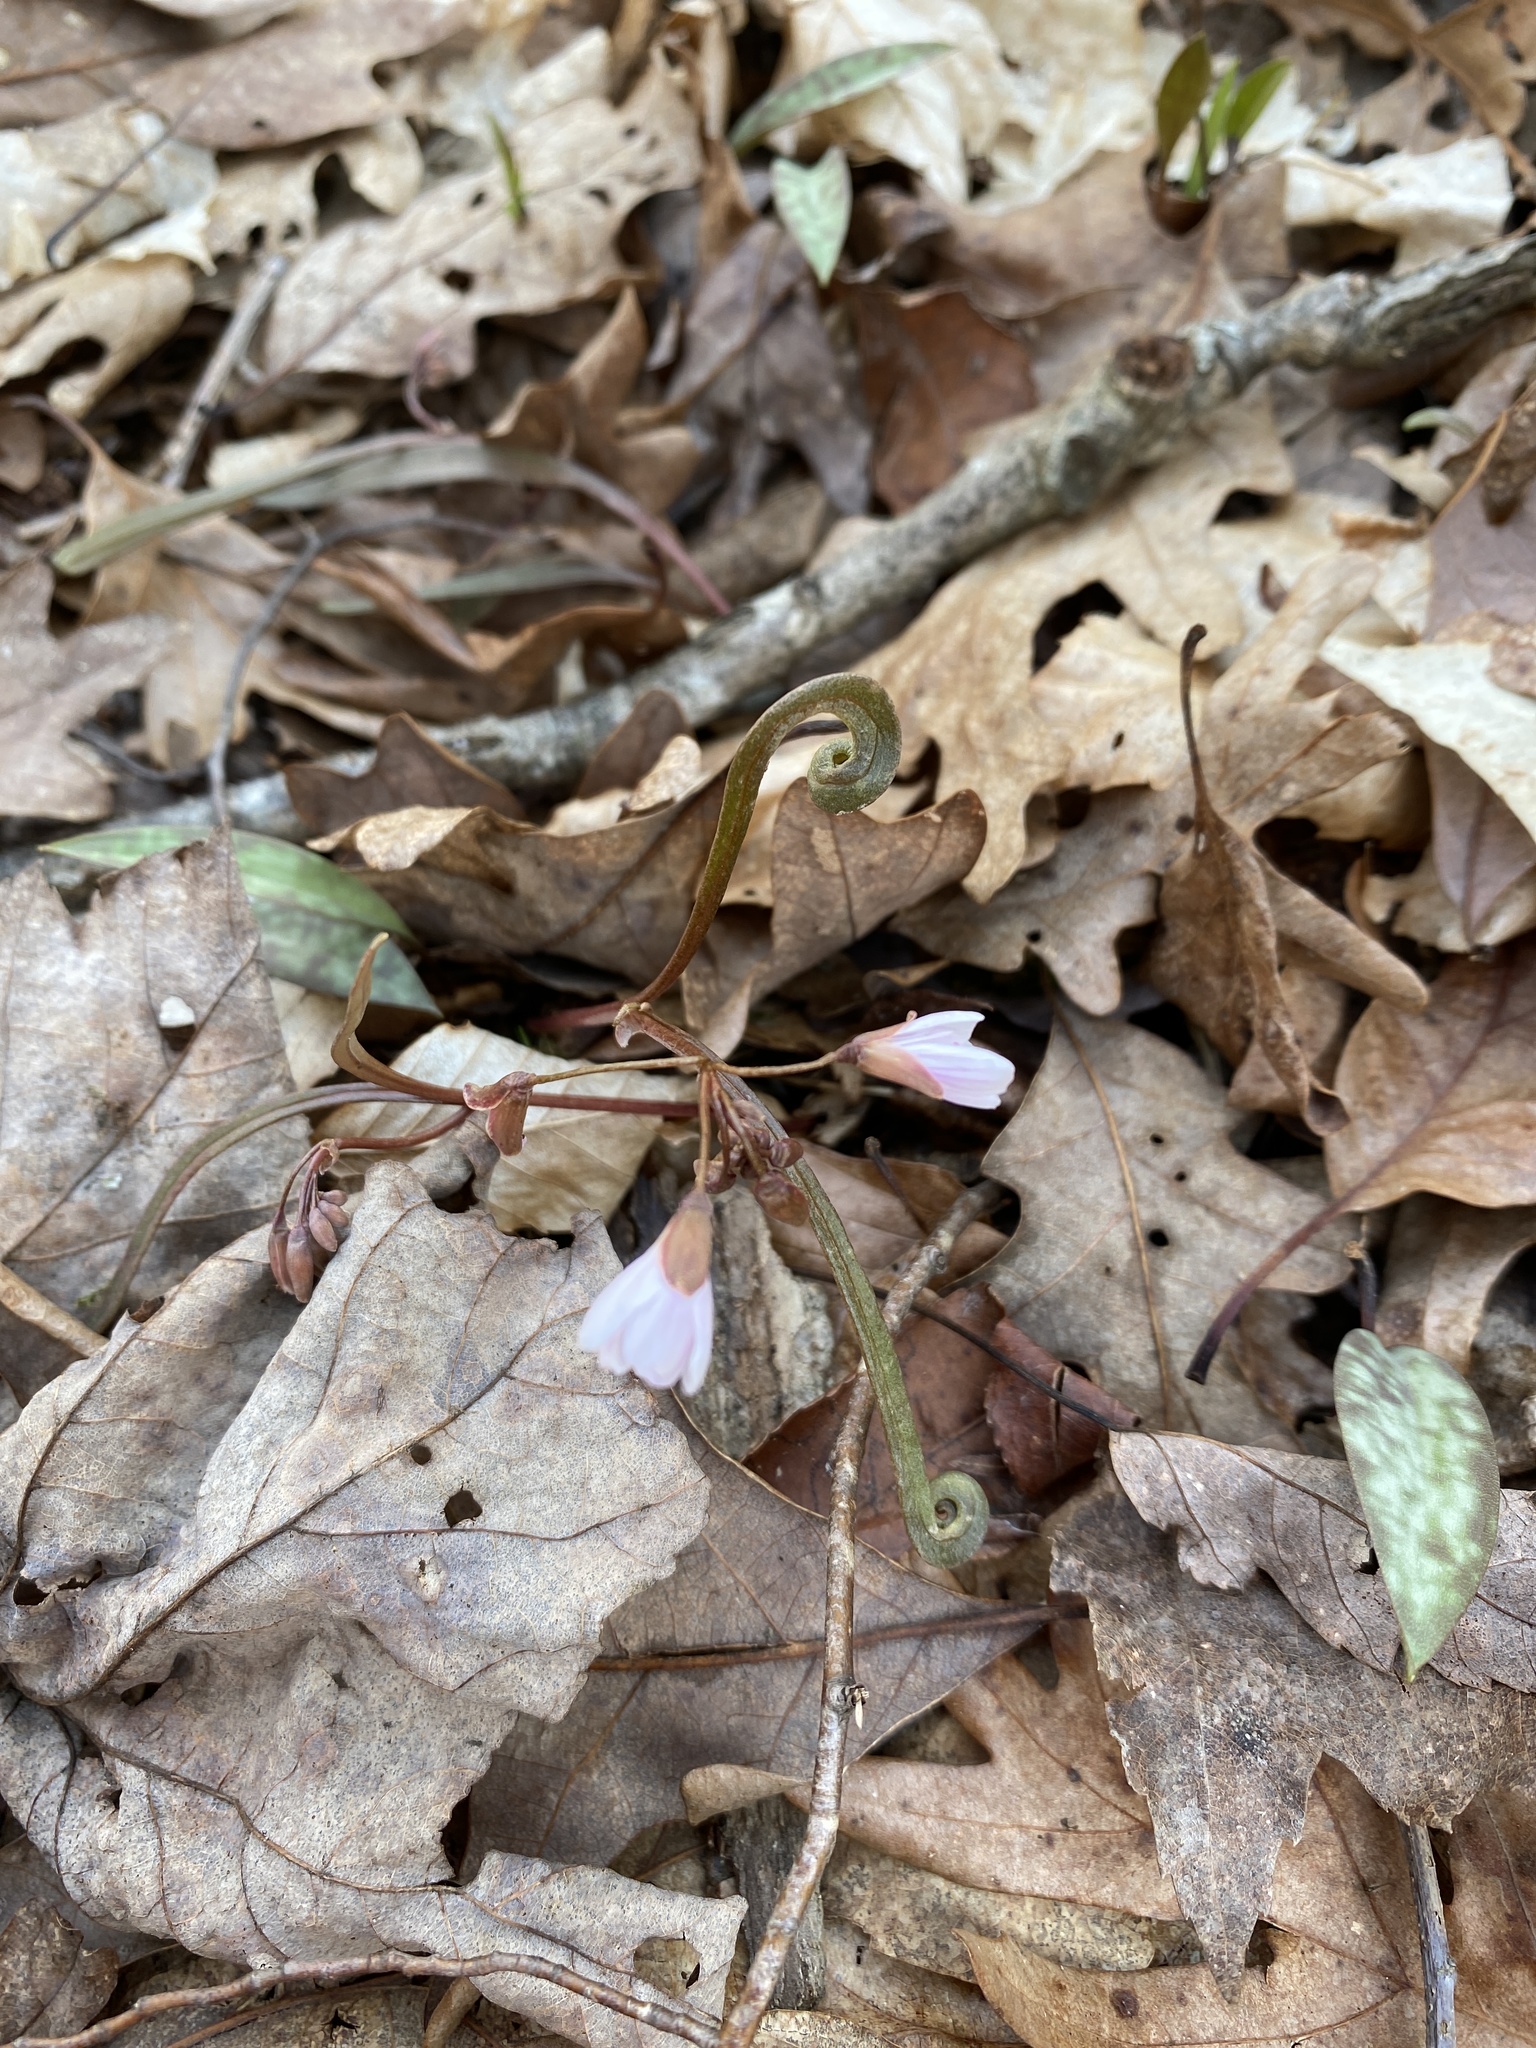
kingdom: Plantae
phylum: Tracheophyta
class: Magnoliopsida
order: Caryophyllales
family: Montiaceae
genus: Claytonia
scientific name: Claytonia virginica
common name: Virginia springbeauty
